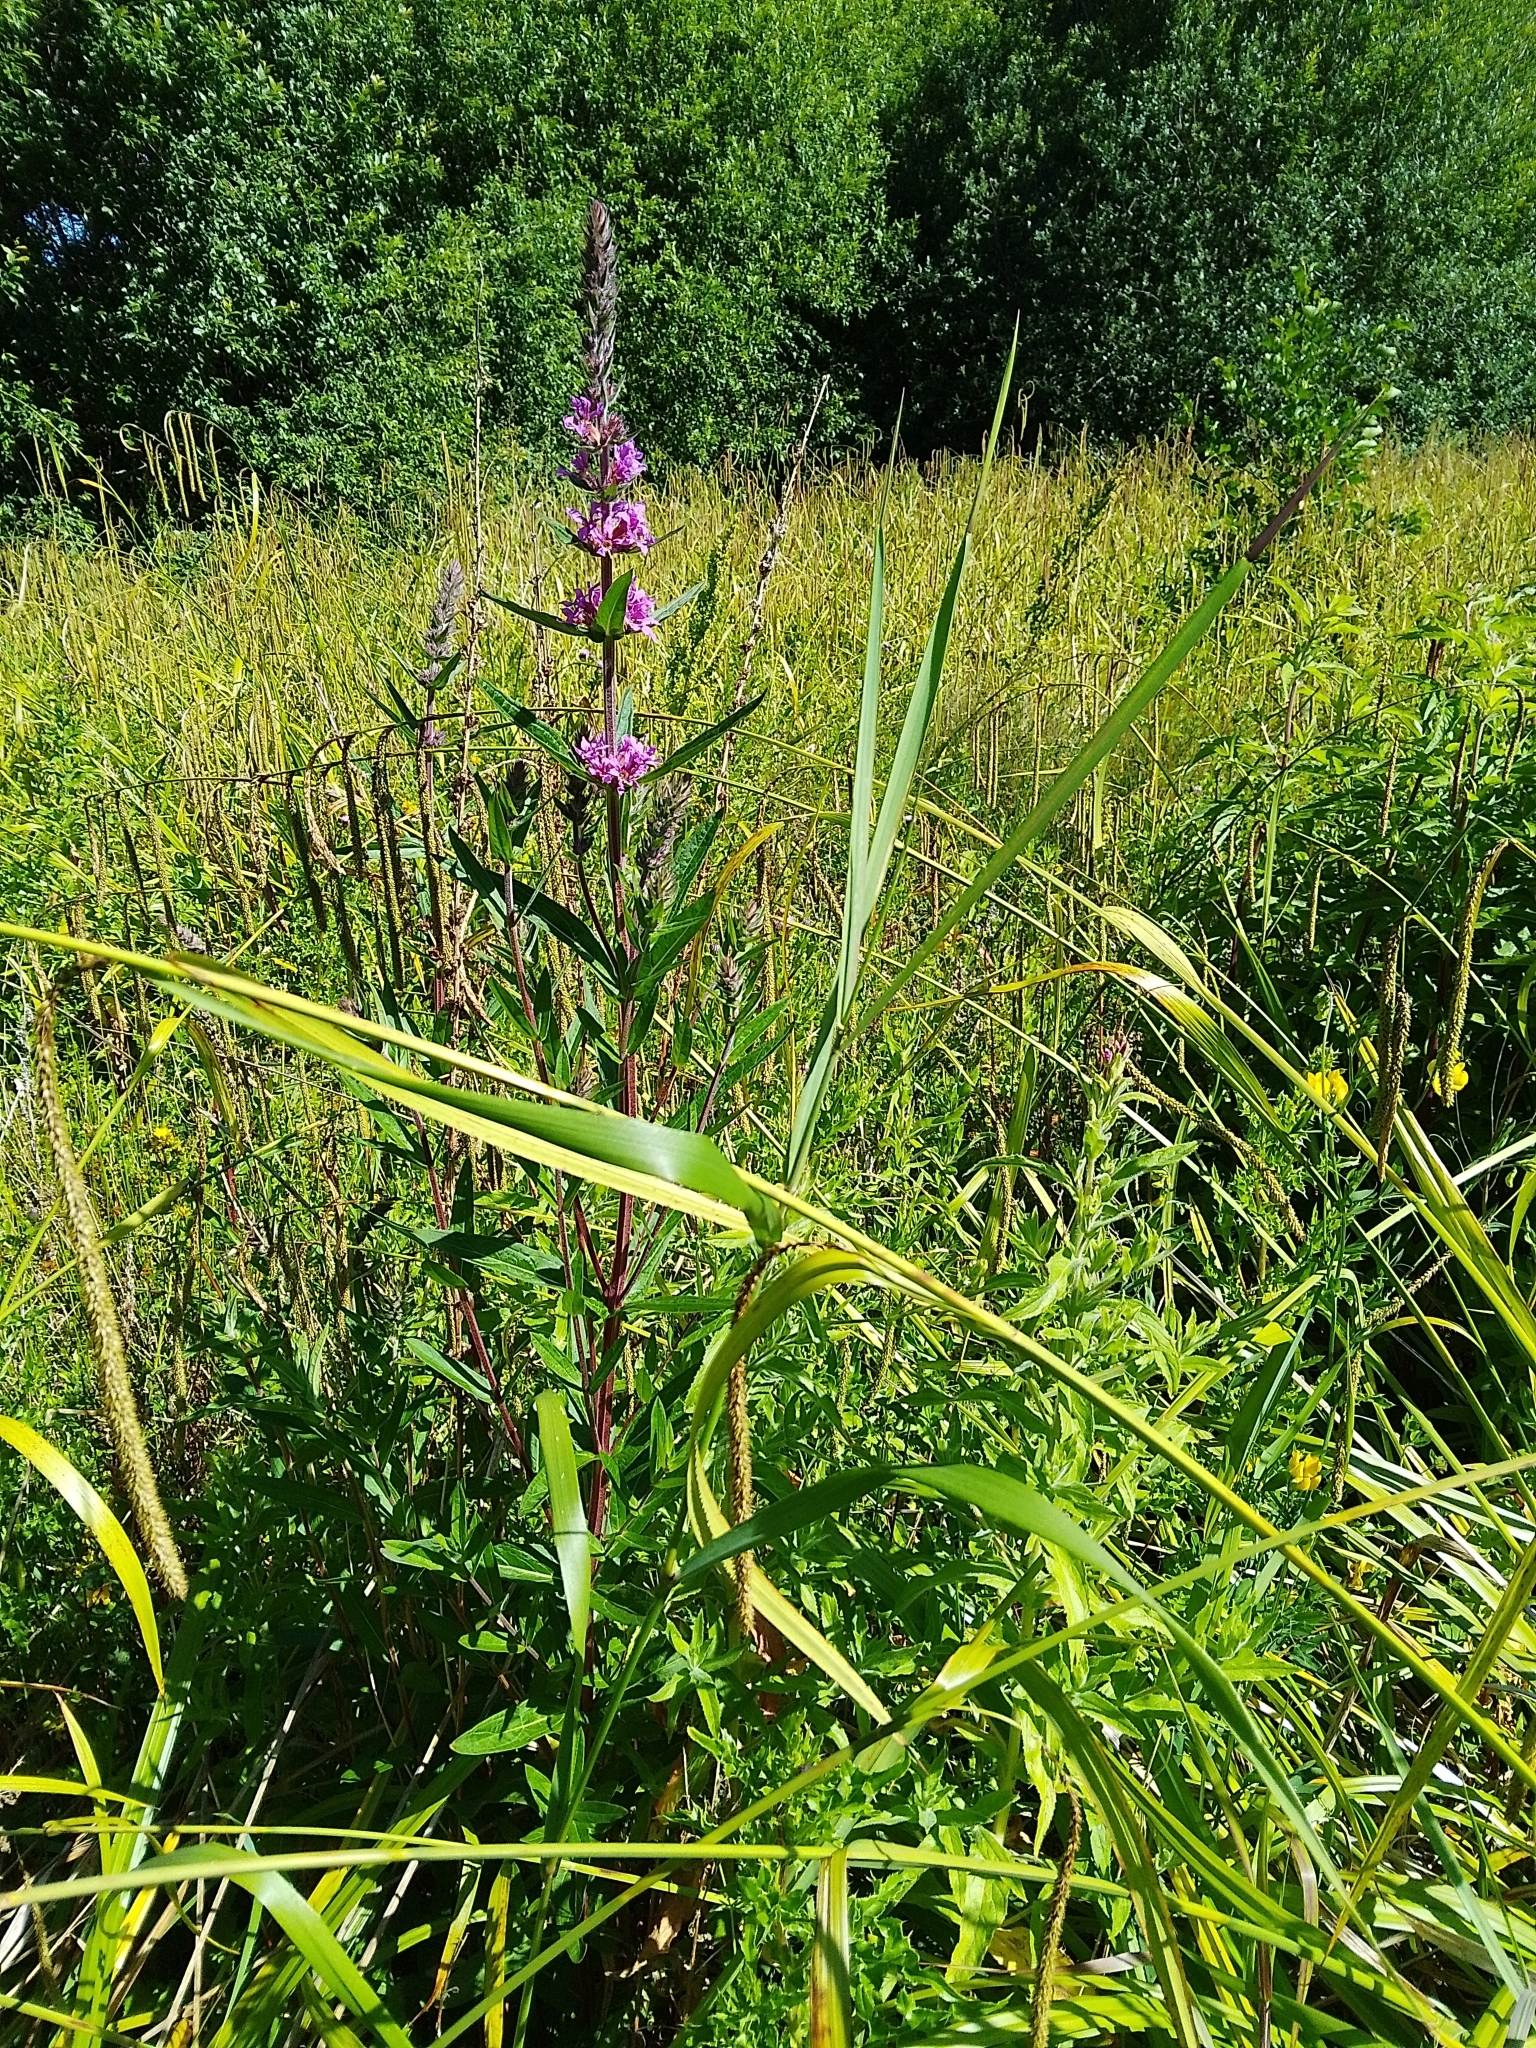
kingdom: Plantae
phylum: Tracheophyta
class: Magnoliopsida
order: Myrtales
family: Lythraceae
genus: Lythrum
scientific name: Lythrum salicaria
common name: Purple loosestrife
